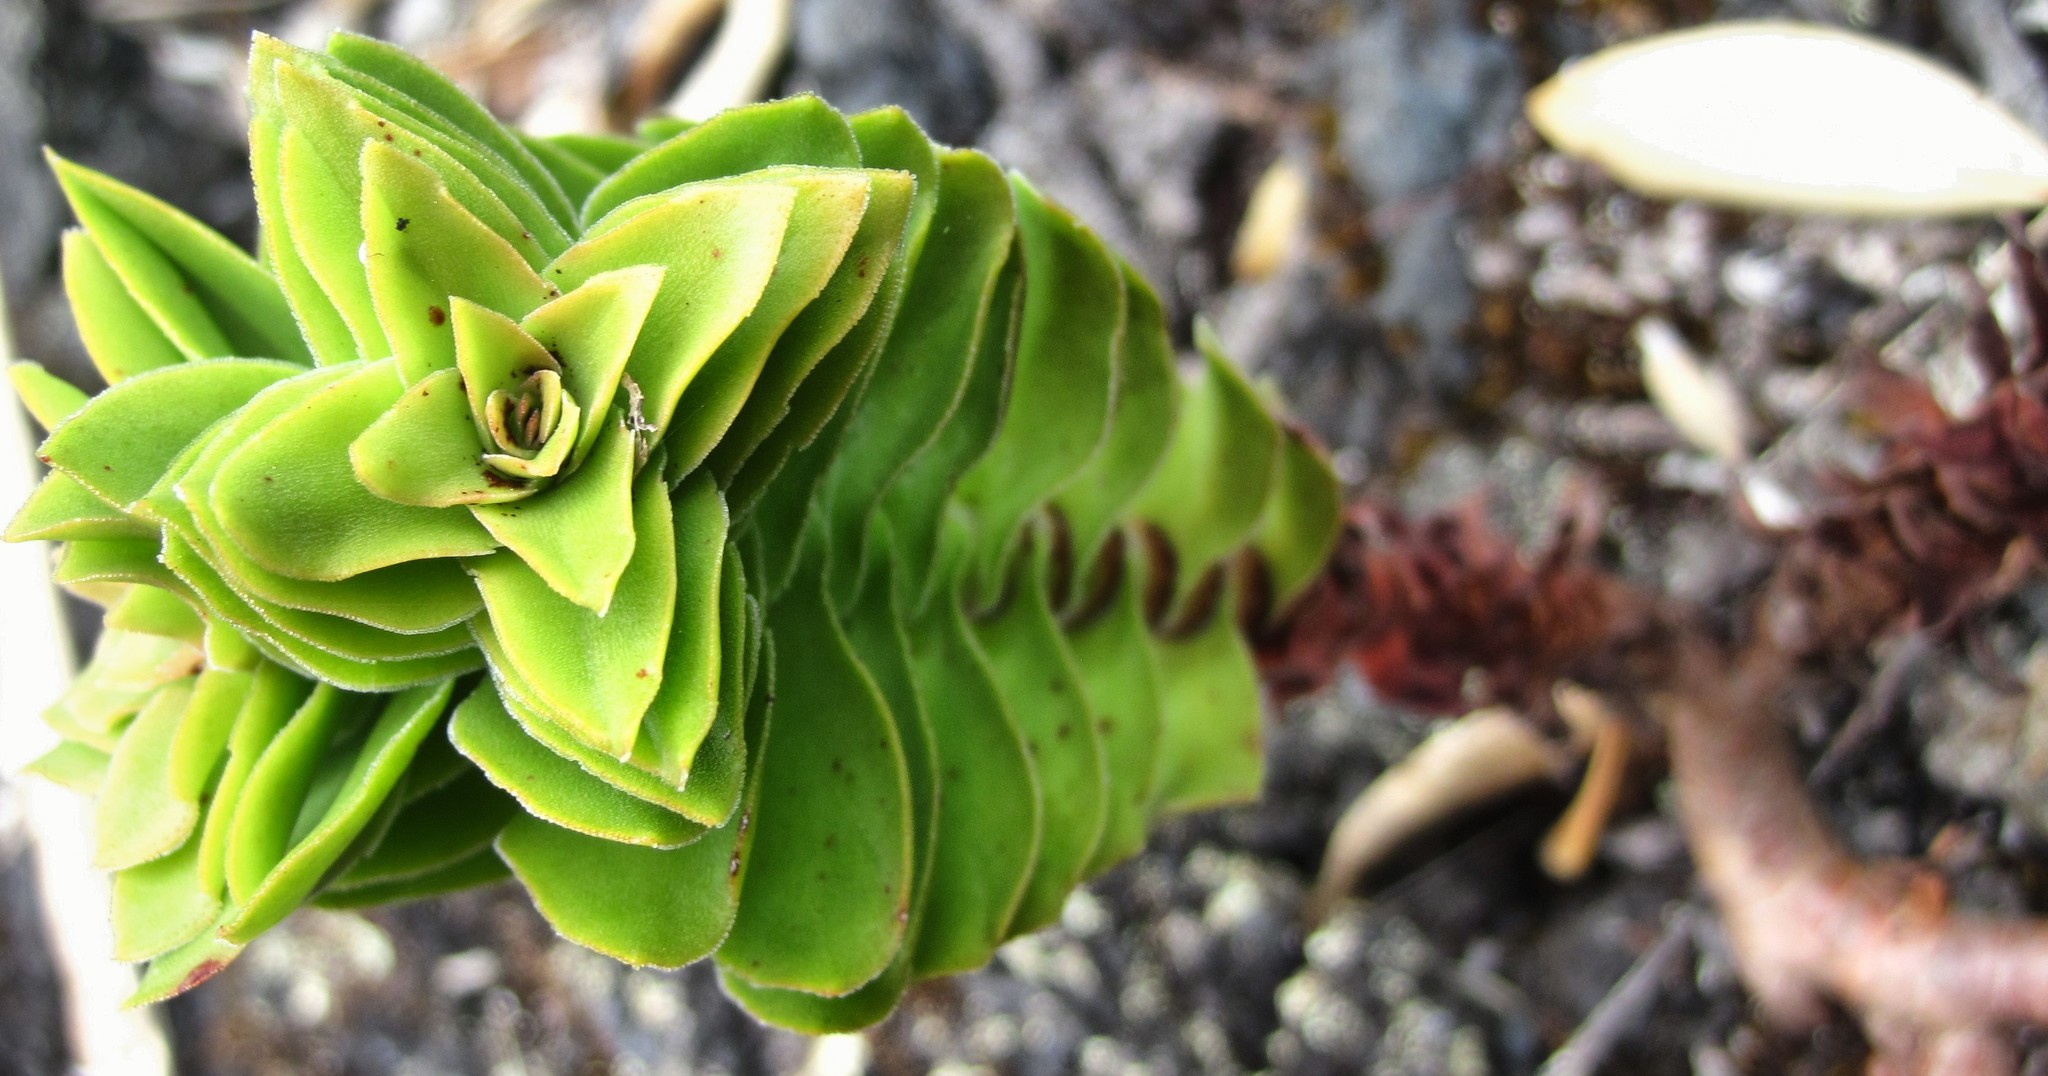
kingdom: Plantae
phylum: Tracheophyta
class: Magnoliopsida
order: Saxifragales
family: Crassulaceae
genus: Crassula
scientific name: Crassula coccinea
